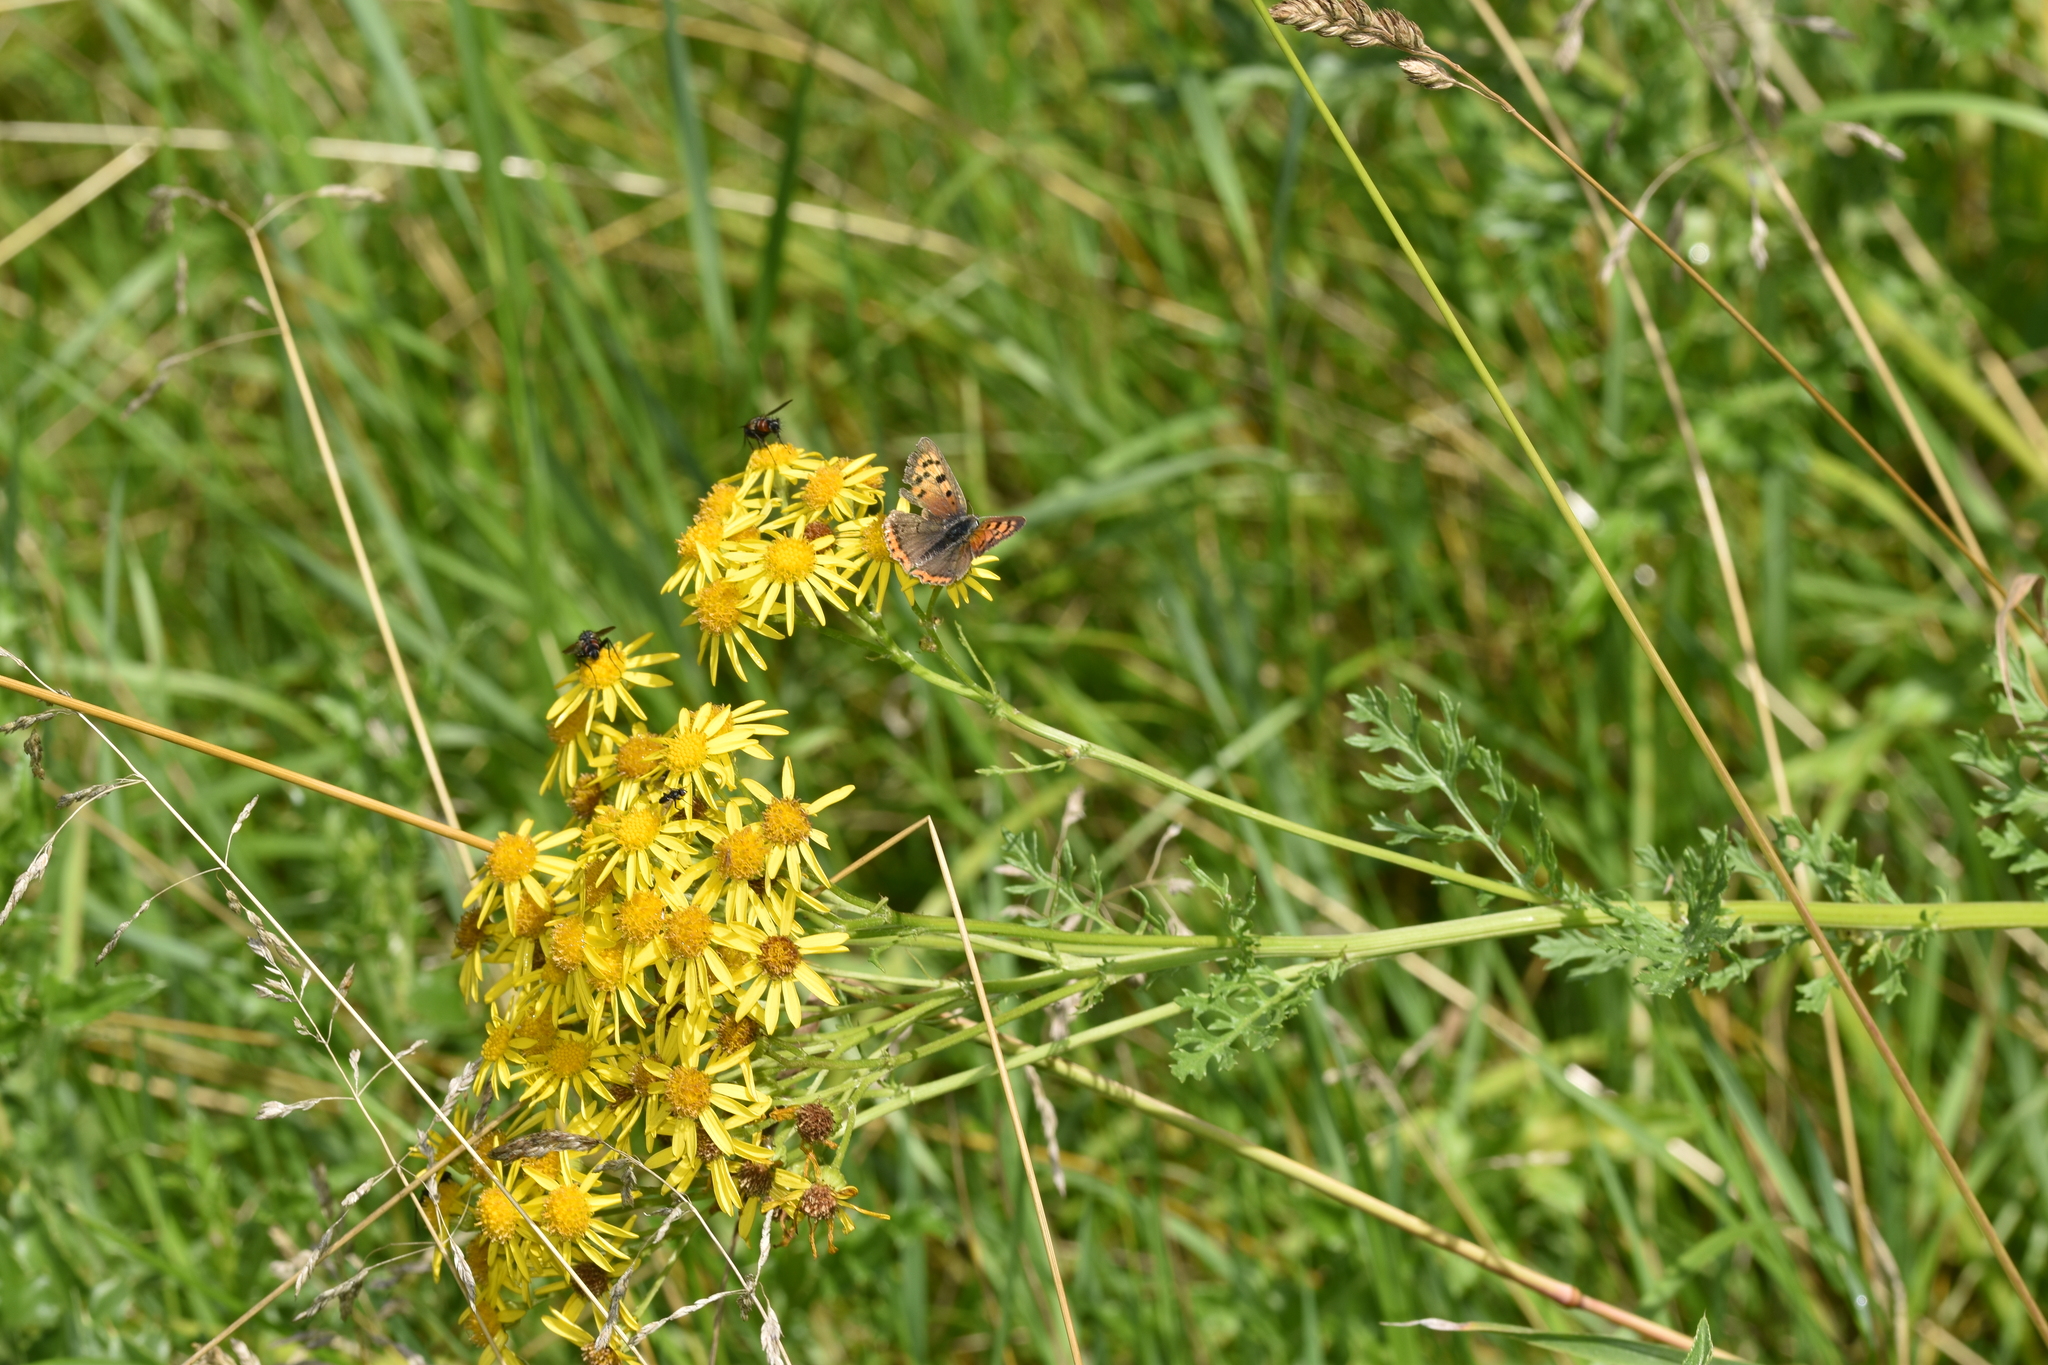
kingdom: Animalia
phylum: Arthropoda
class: Insecta
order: Lepidoptera
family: Lycaenidae
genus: Lycaena
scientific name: Lycaena phlaeas
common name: Small copper
